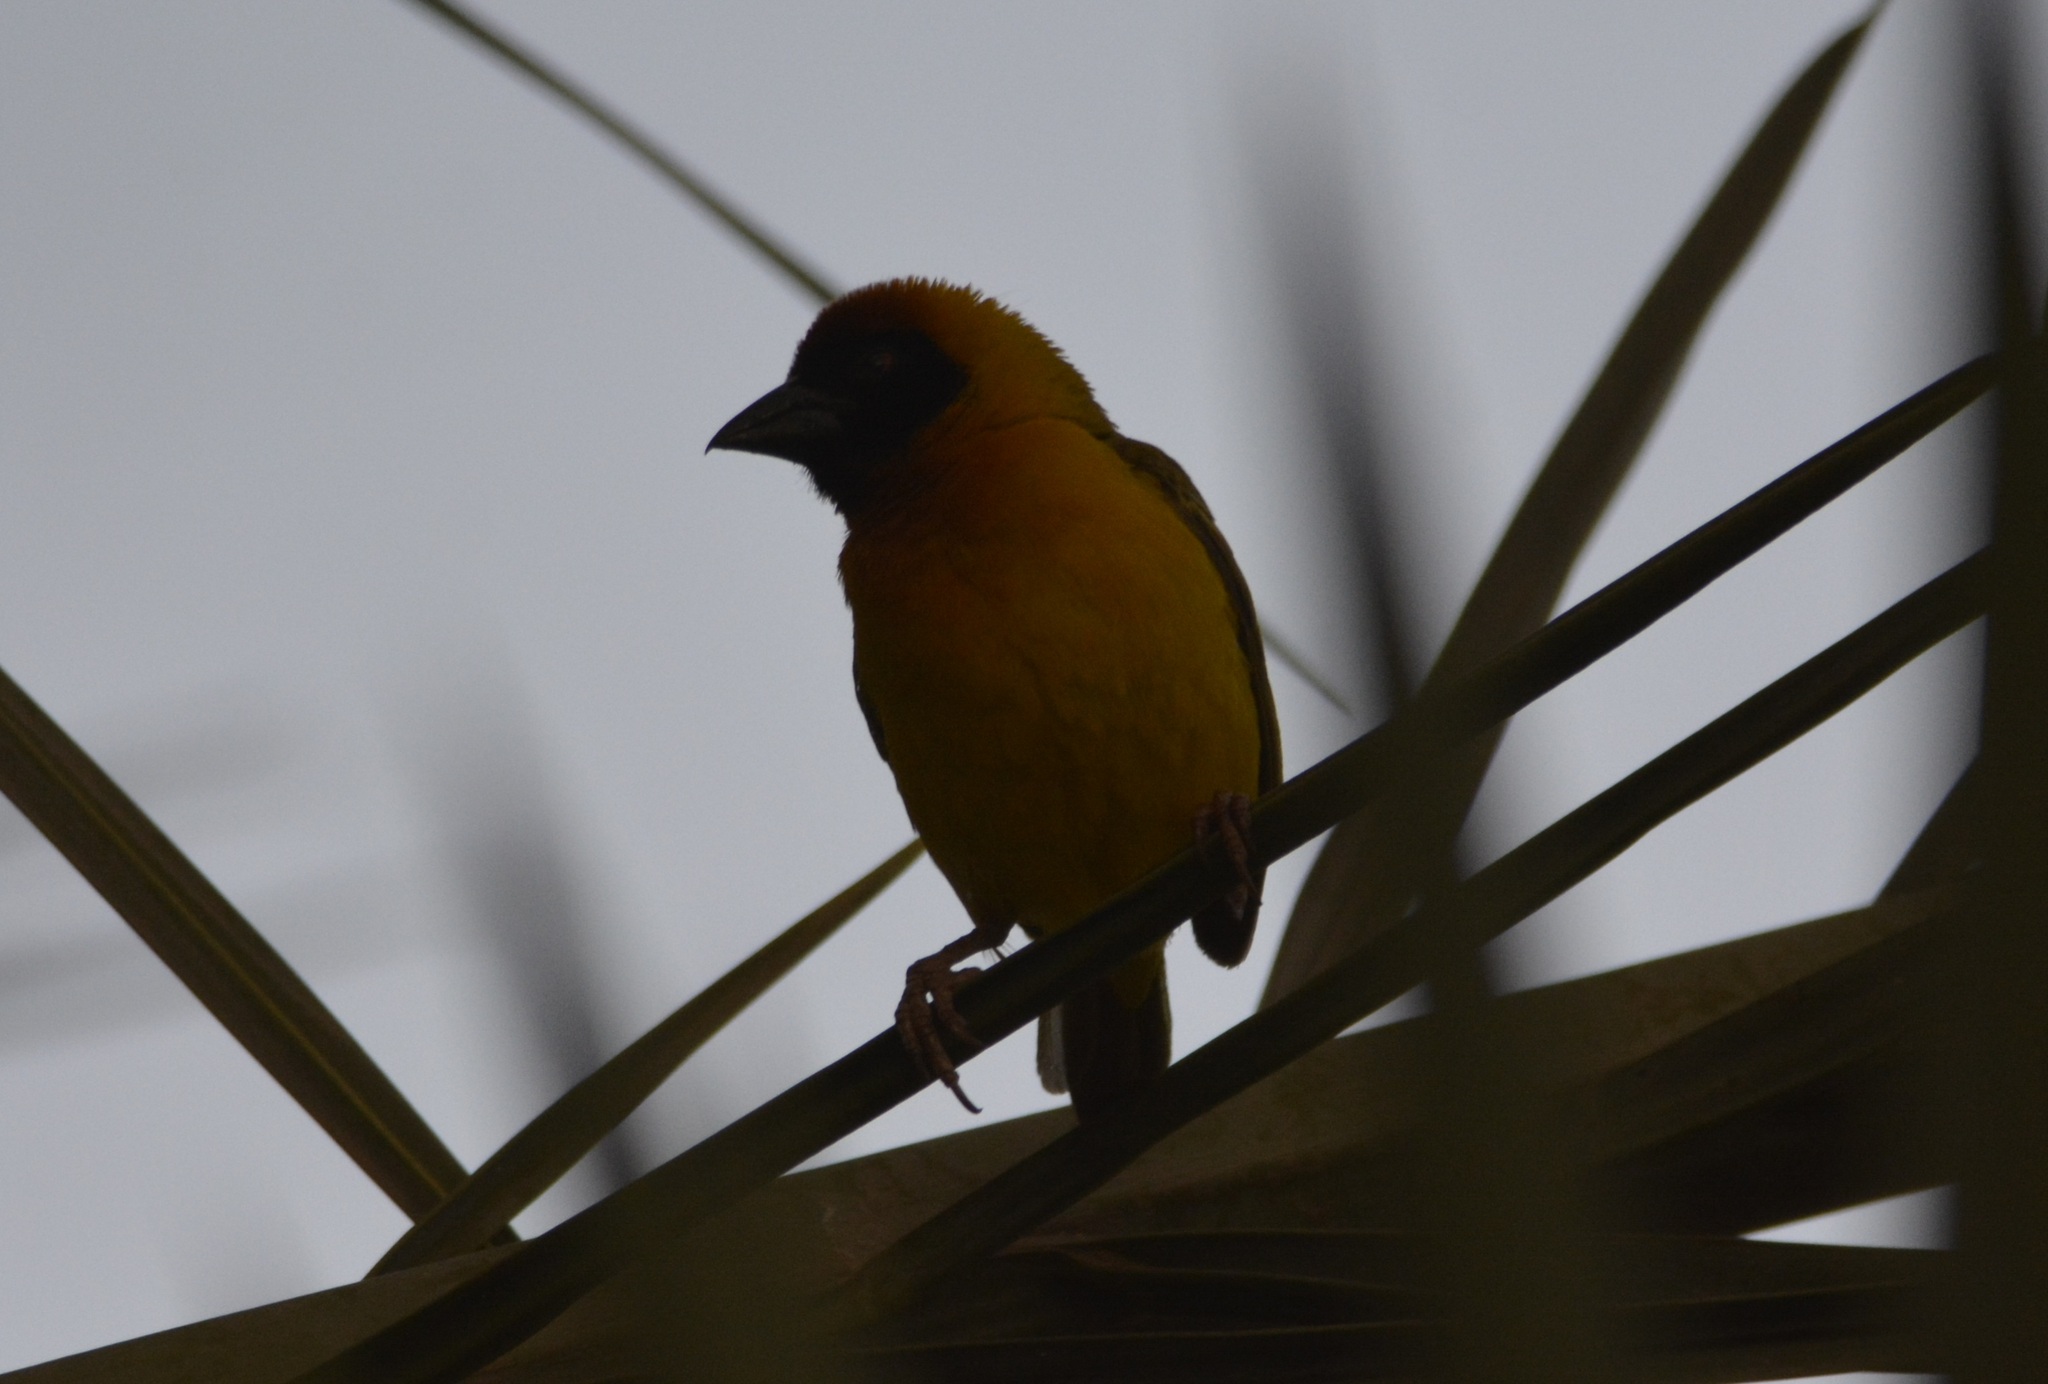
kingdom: Animalia
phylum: Chordata
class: Aves
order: Passeriformes
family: Ploceidae
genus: Ploceus
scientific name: Ploceus vitellinus
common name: Vitelline masked weaver
